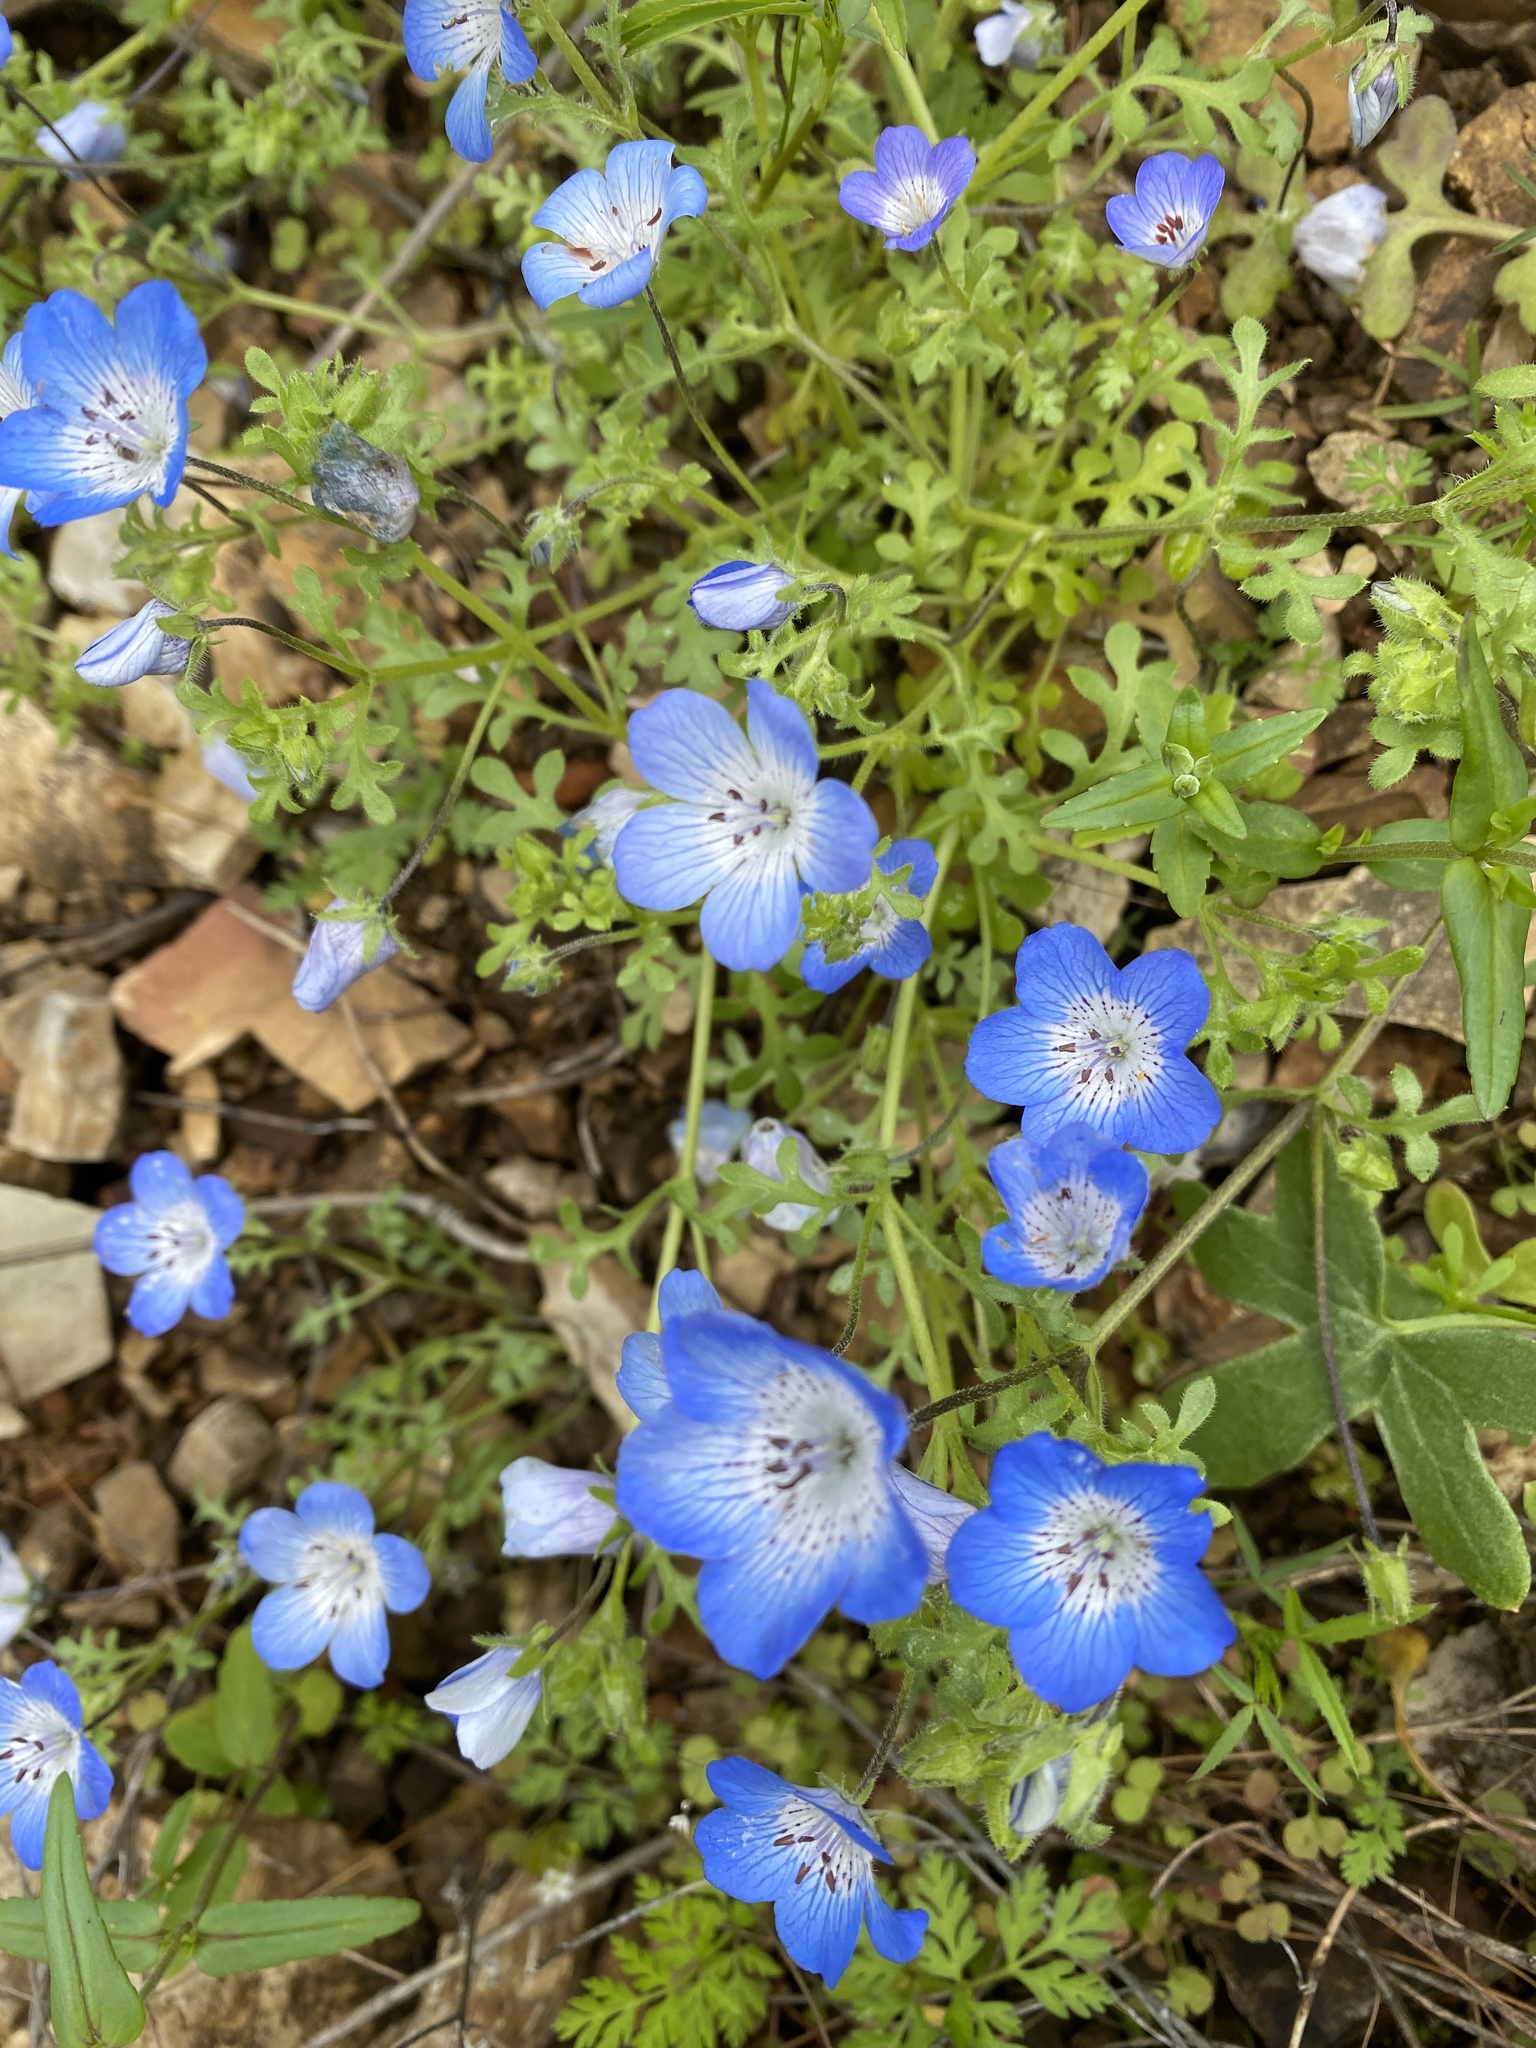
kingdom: Plantae
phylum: Tracheophyta
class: Magnoliopsida
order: Boraginales
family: Hydrophyllaceae
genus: Nemophila
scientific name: Nemophila menziesii
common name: Baby's-blue-eyes
